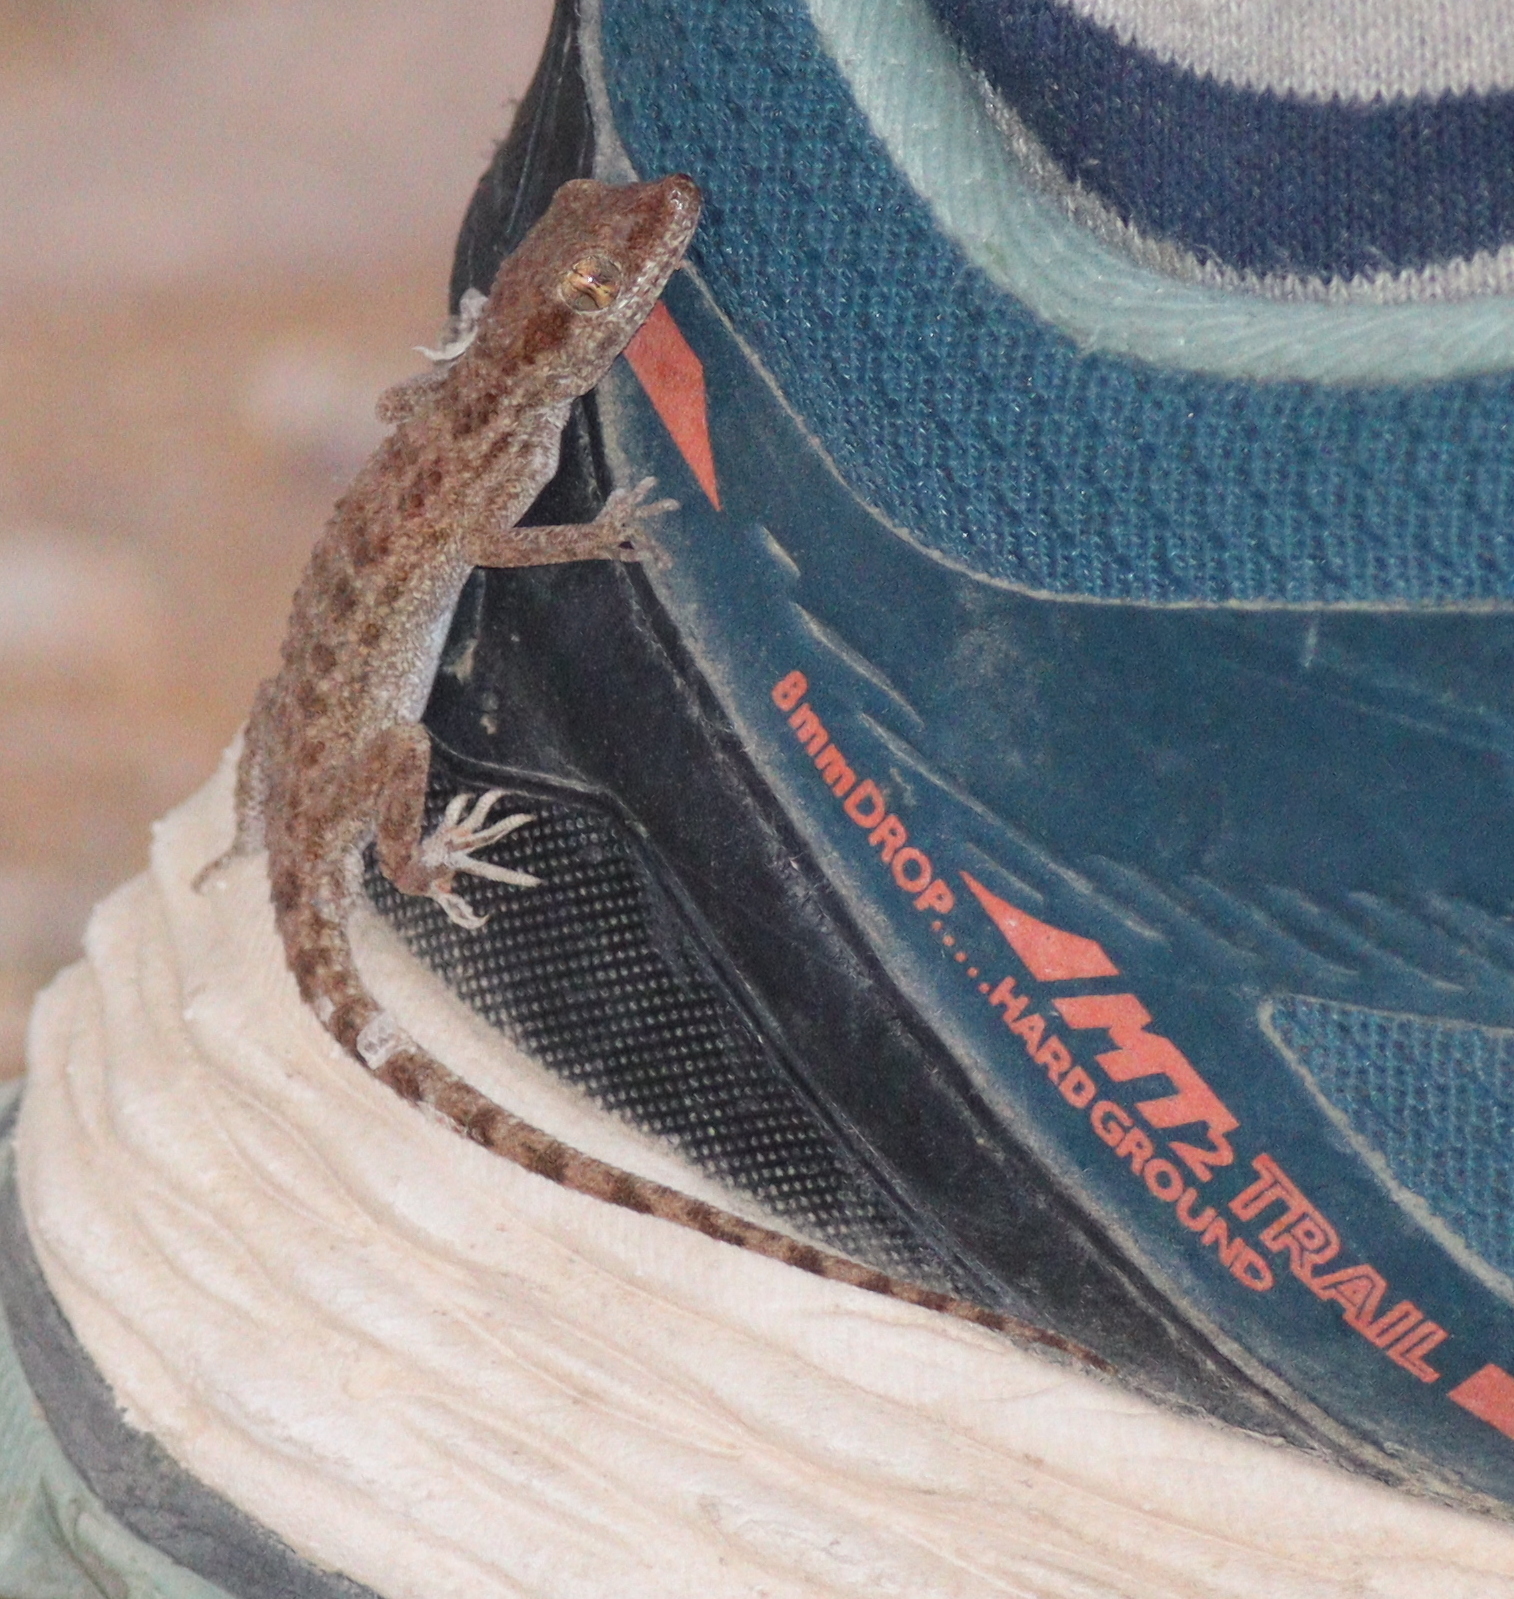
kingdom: Animalia
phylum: Chordata
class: Squamata
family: Gekkonidae
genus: Bunopus
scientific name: Bunopus tuberculatus
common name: Southern tuberculated gecko
